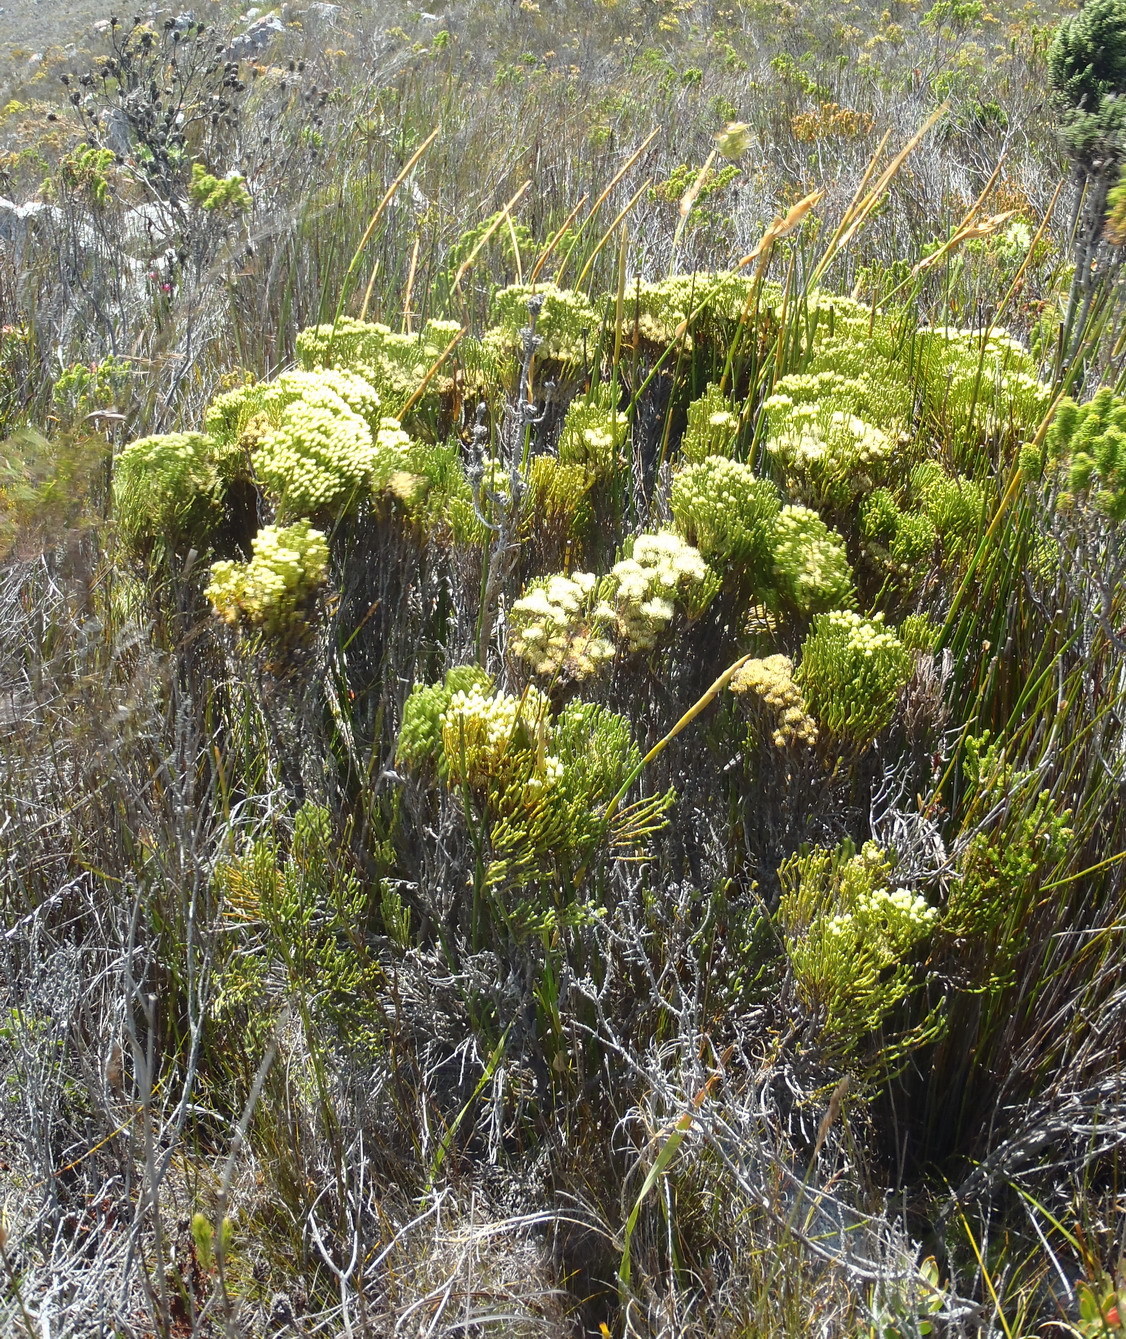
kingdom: Plantae
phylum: Tracheophyta
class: Magnoliopsida
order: Bruniales
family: Bruniaceae
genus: Brunia
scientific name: Brunia paleacea
